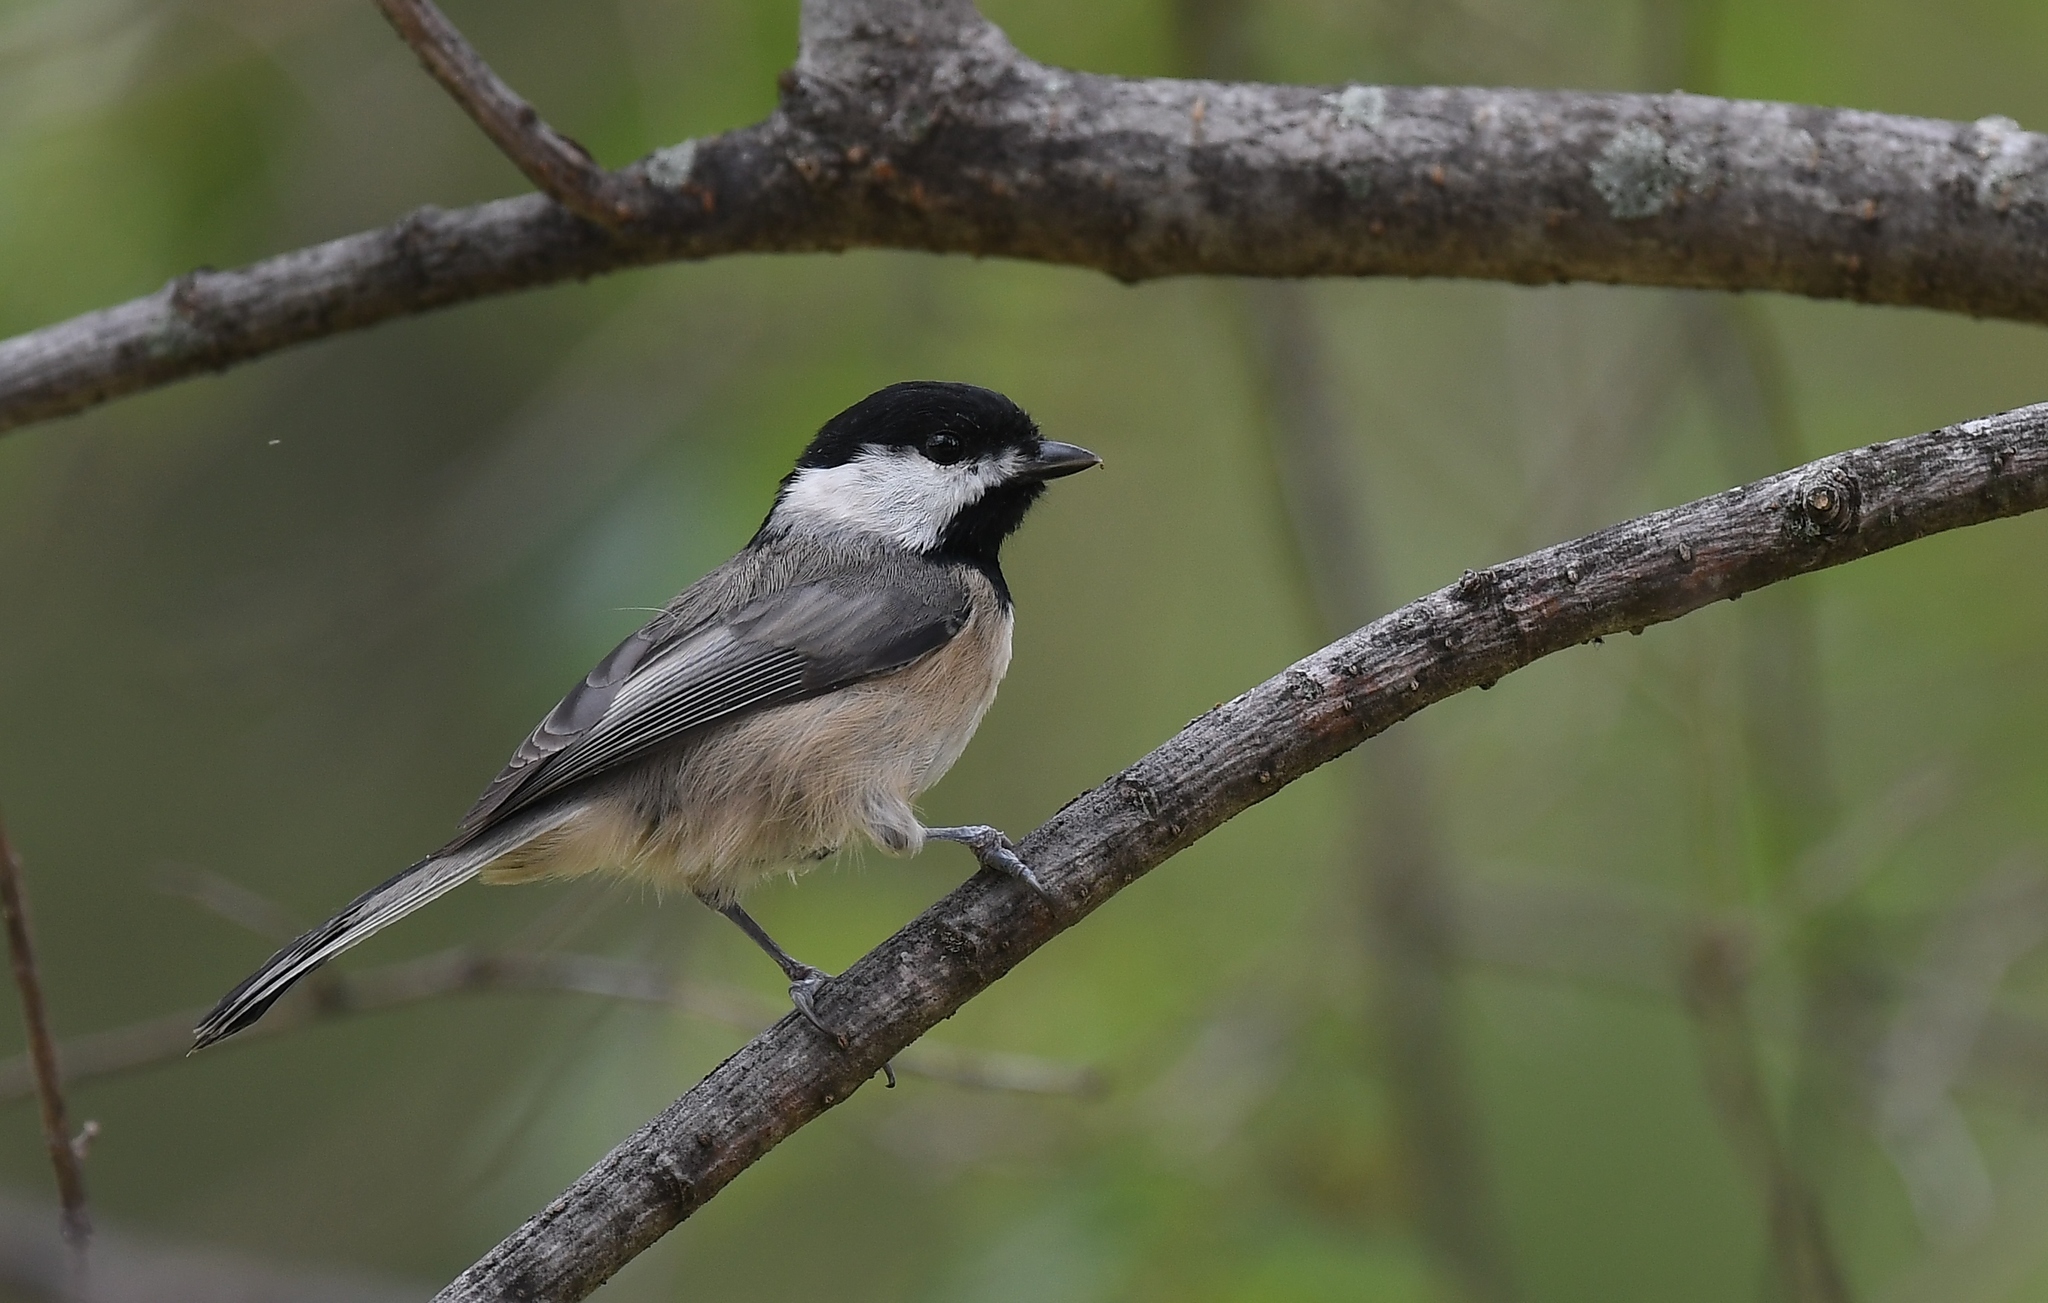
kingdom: Animalia
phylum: Chordata
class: Aves
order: Passeriformes
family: Paridae
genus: Poecile
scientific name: Poecile carolinensis
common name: Carolina chickadee
